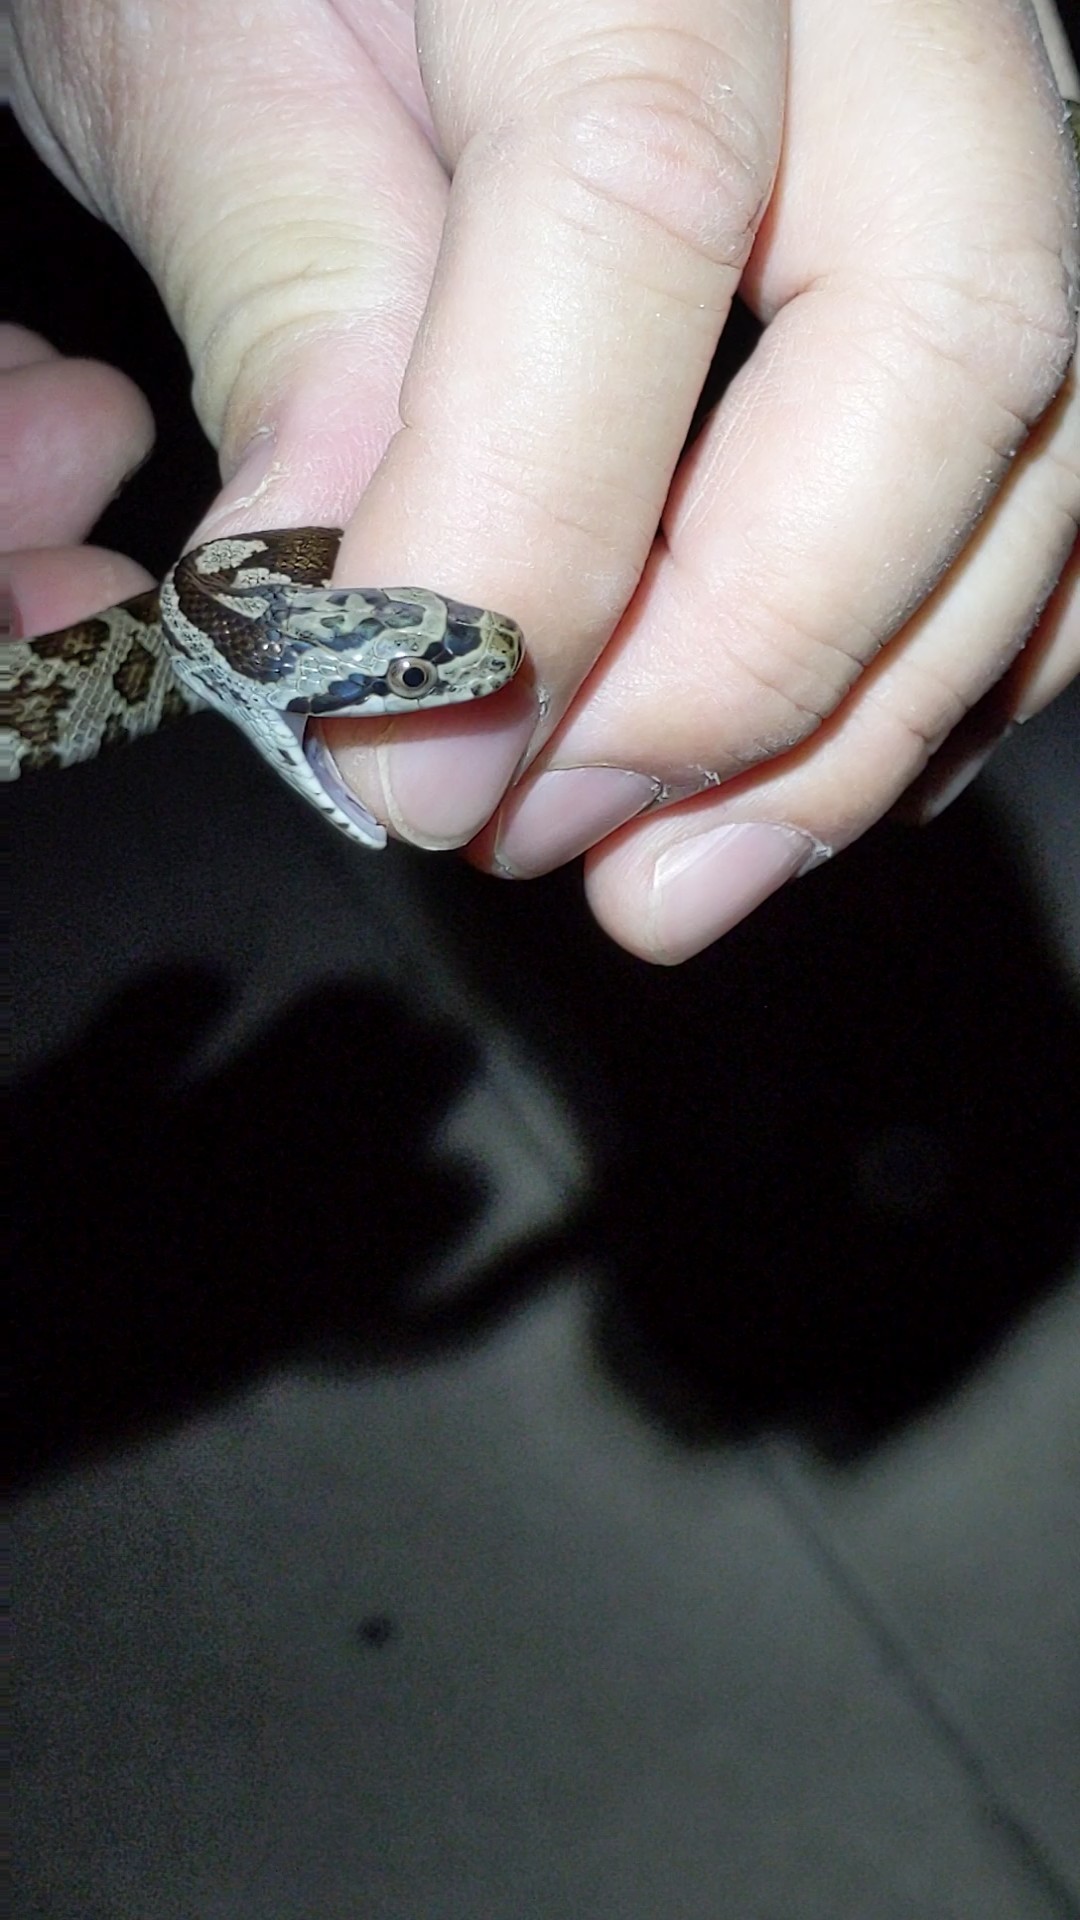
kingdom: Animalia
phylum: Chordata
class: Squamata
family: Colubridae
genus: Pantherophis
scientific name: Pantherophis obsoletus
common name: Black rat snake
